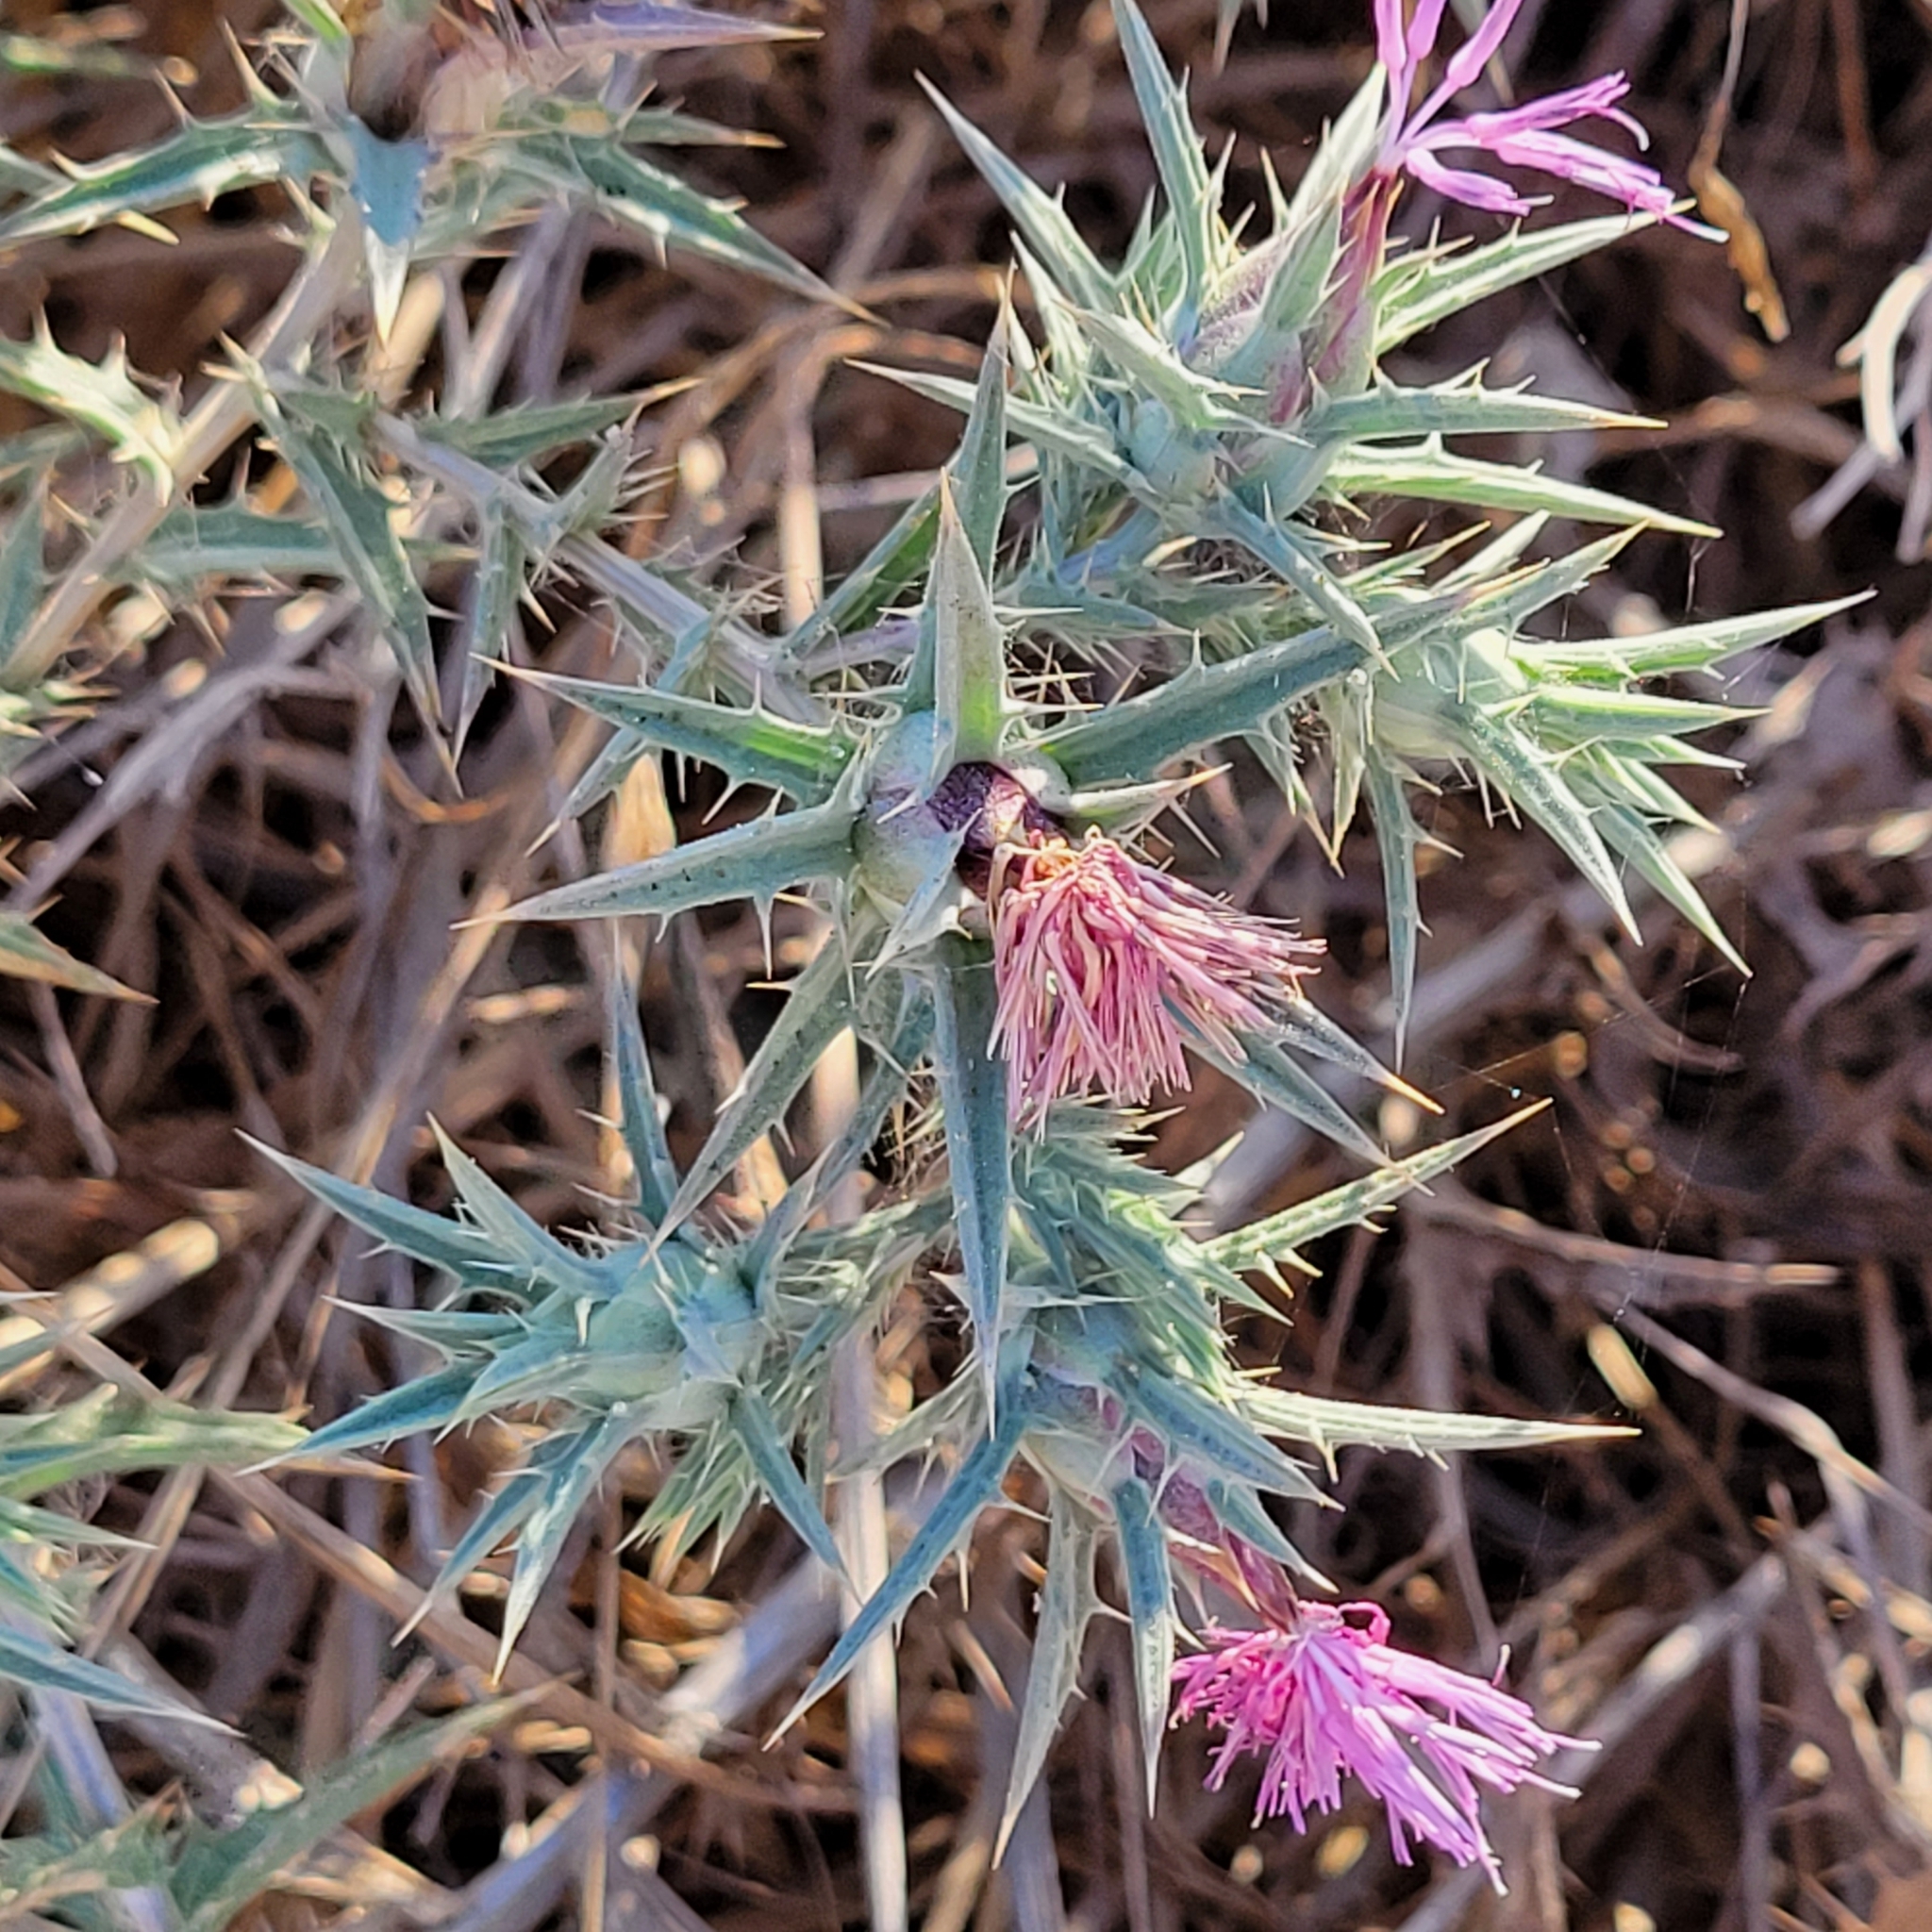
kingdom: Plantae
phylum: Tracheophyta
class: Magnoliopsida
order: Asterales
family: Asteraceae
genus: Carthamus
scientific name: Carthamus tenuis
